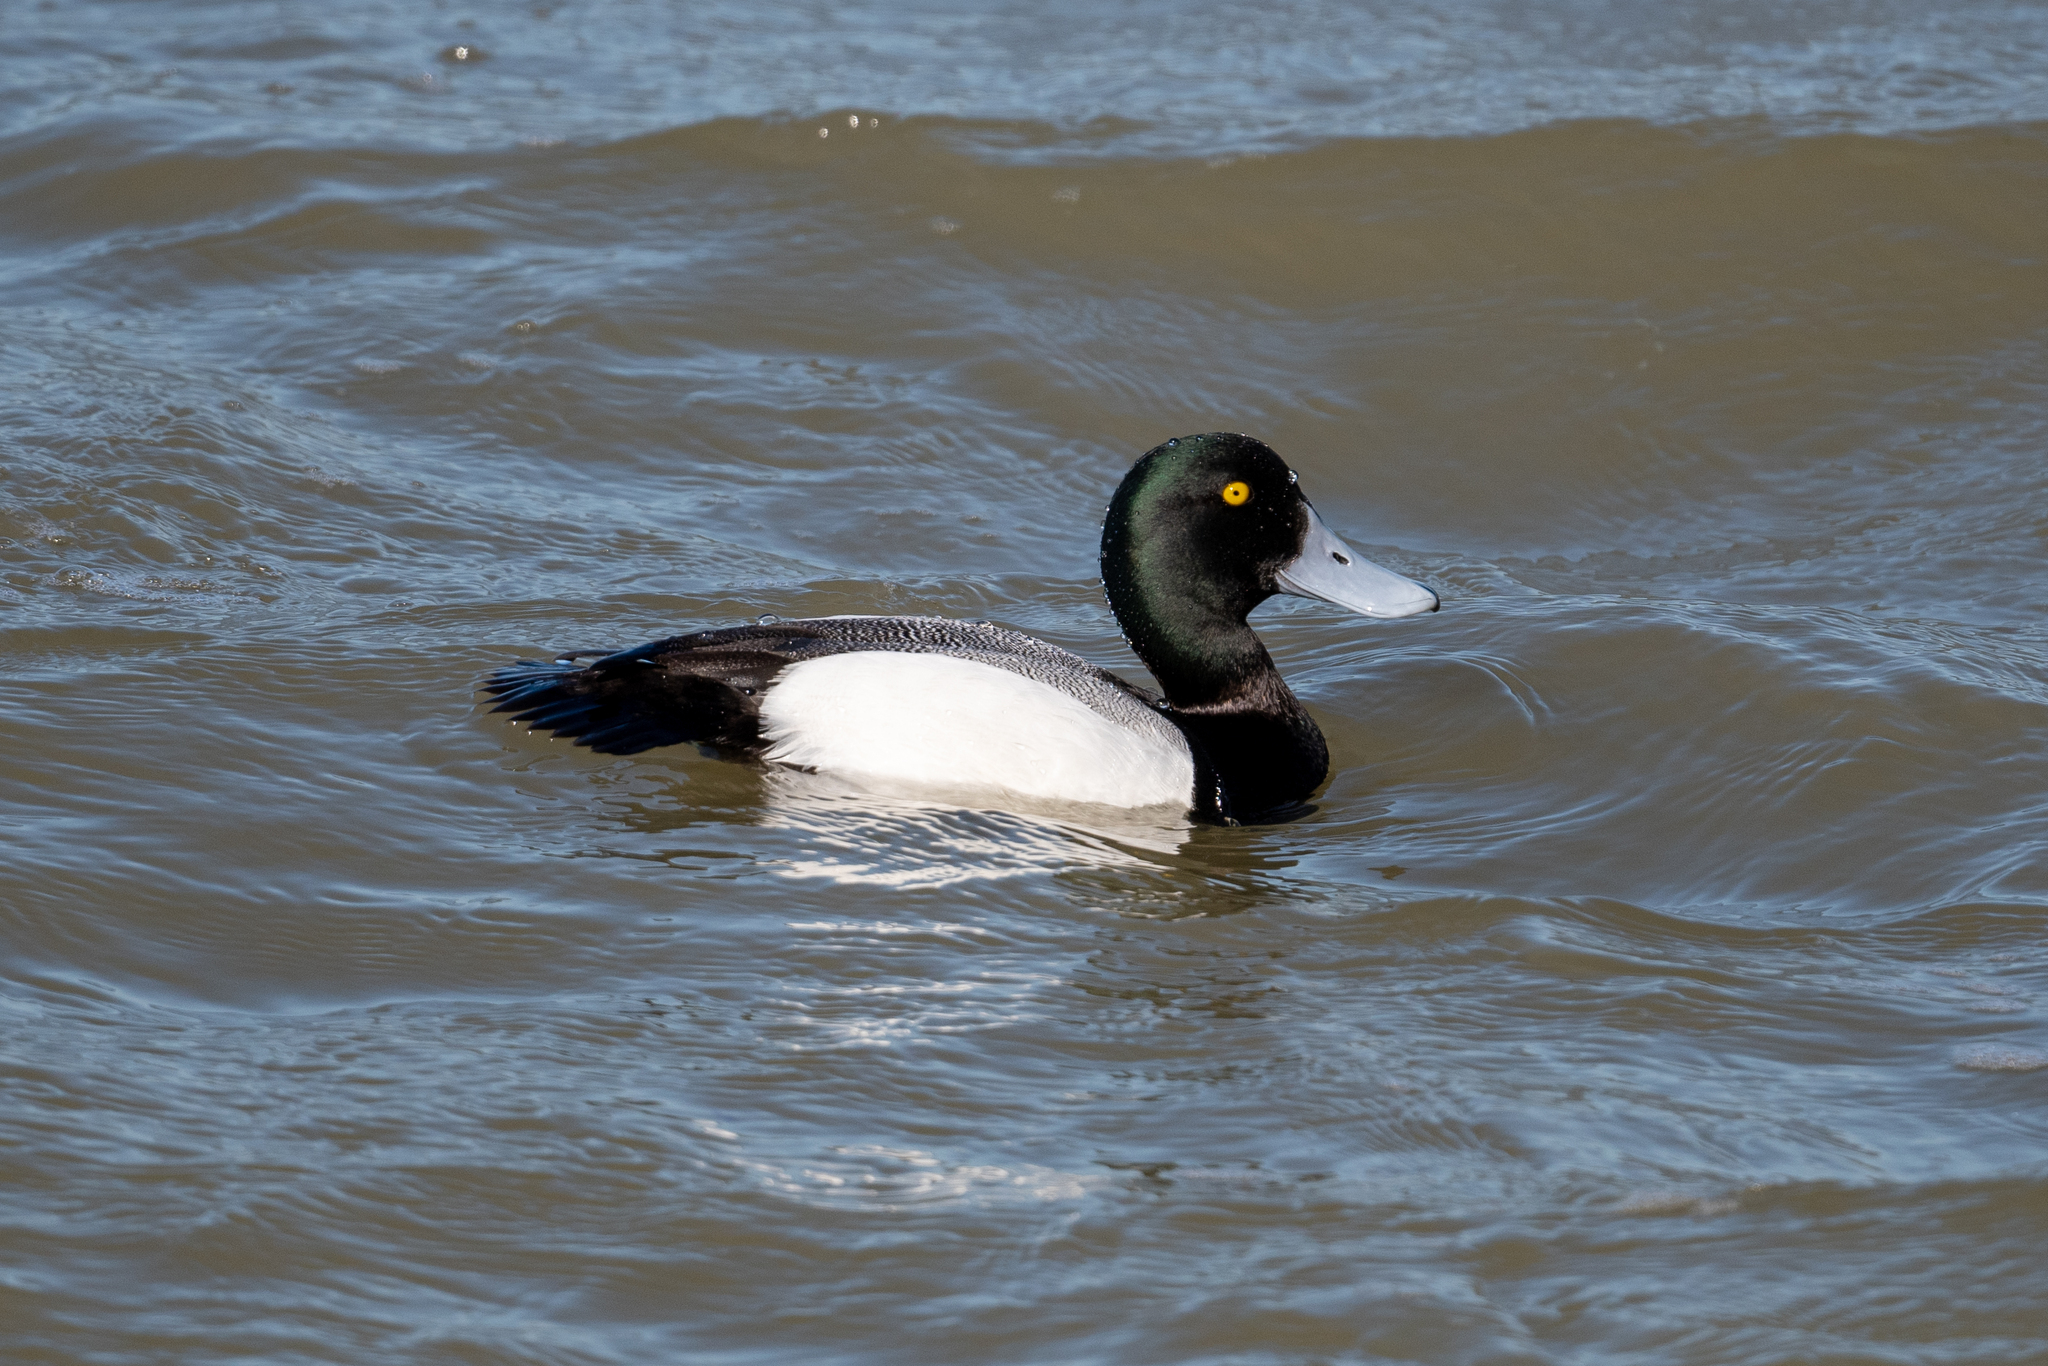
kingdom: Animalia
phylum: Chordata
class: Aves
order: Anseriformes
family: Anatidae
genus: Aythya
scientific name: Aythya marila
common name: Greater scaup
